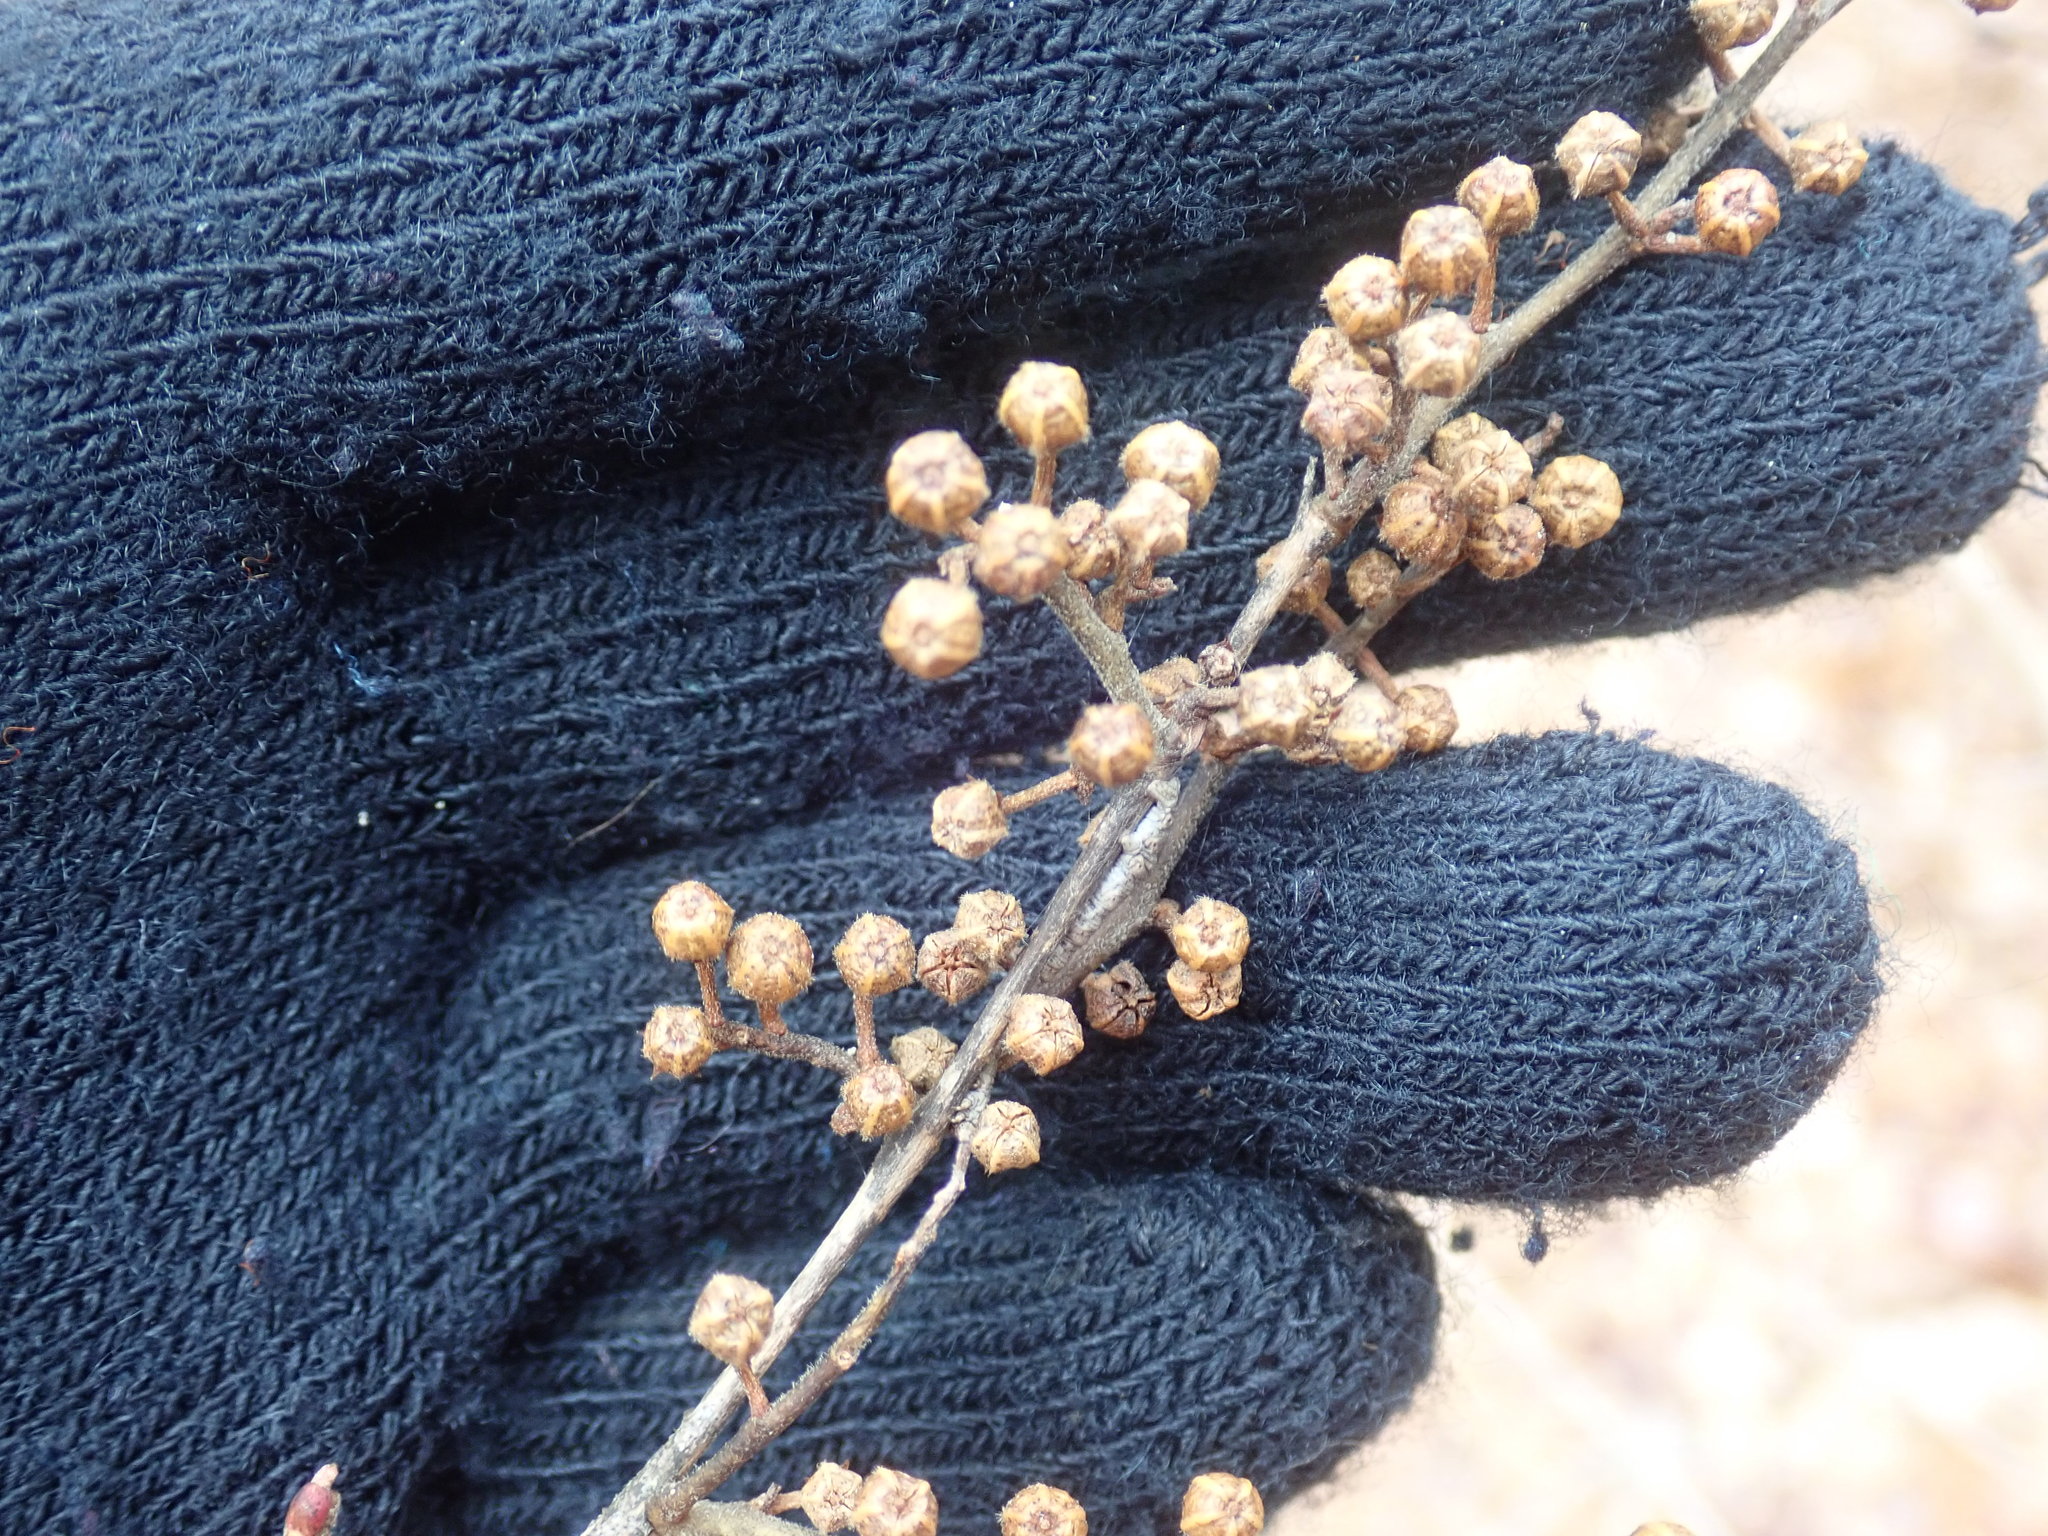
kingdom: Plantae
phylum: Tracheophyta
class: Magnoliopsida
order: Ericales
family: Ericaceae
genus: Lyonia
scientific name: Lyonia ligustrina
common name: Maleberry
